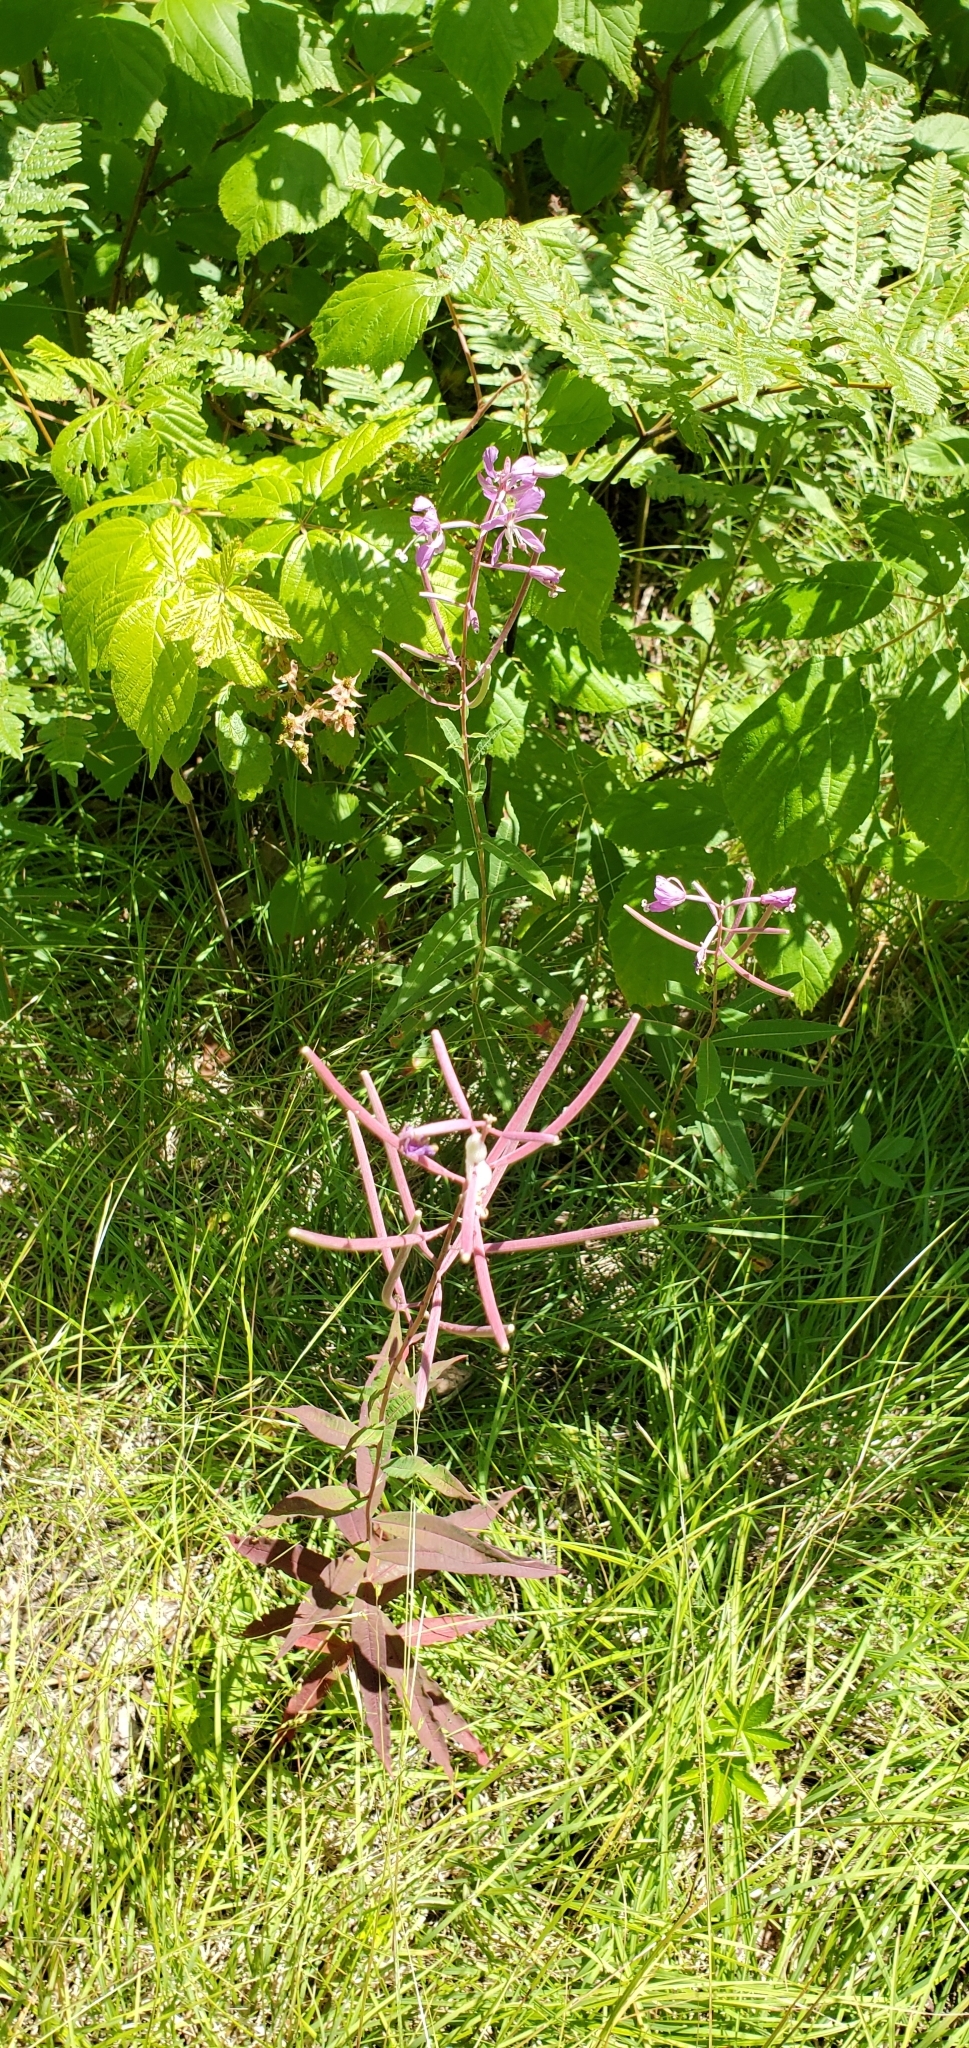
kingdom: Plantae
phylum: Tracheophyta
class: Magnoliopsida
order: Myrtales
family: Onagraceae
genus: Chamaenerion
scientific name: Chamaenerion angustifolium
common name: Fireweed
